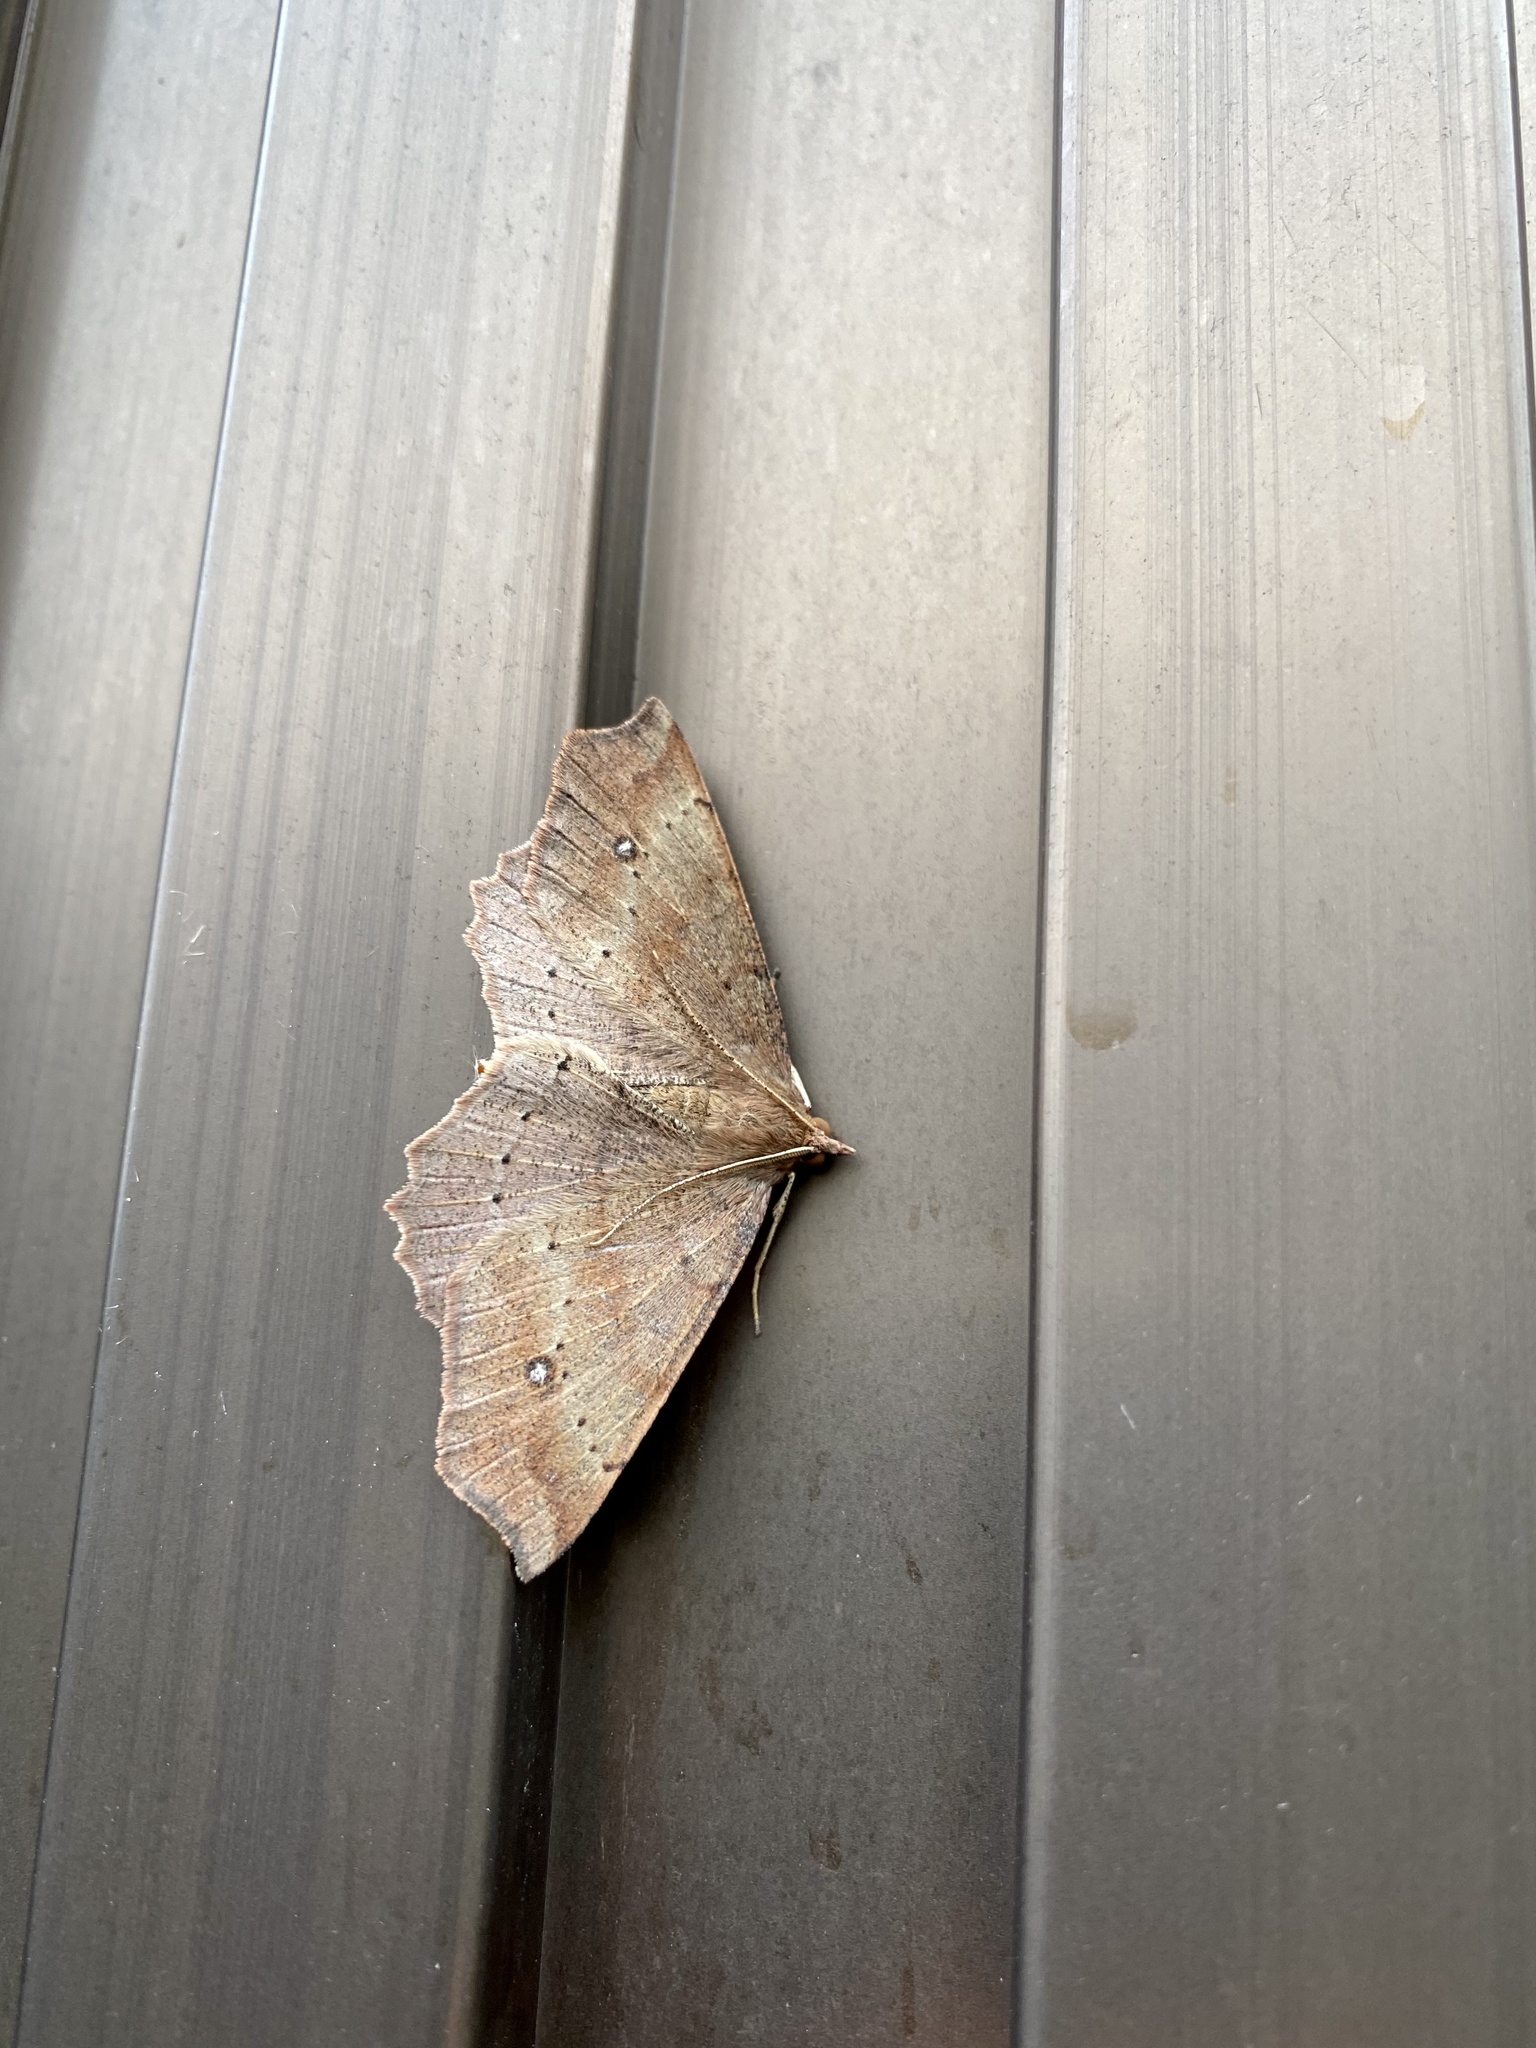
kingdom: Animalia
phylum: Arthropoda
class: Insecta
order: Lepidoptera
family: Geometridae
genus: Xerodes
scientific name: Xerodes albonotaria
